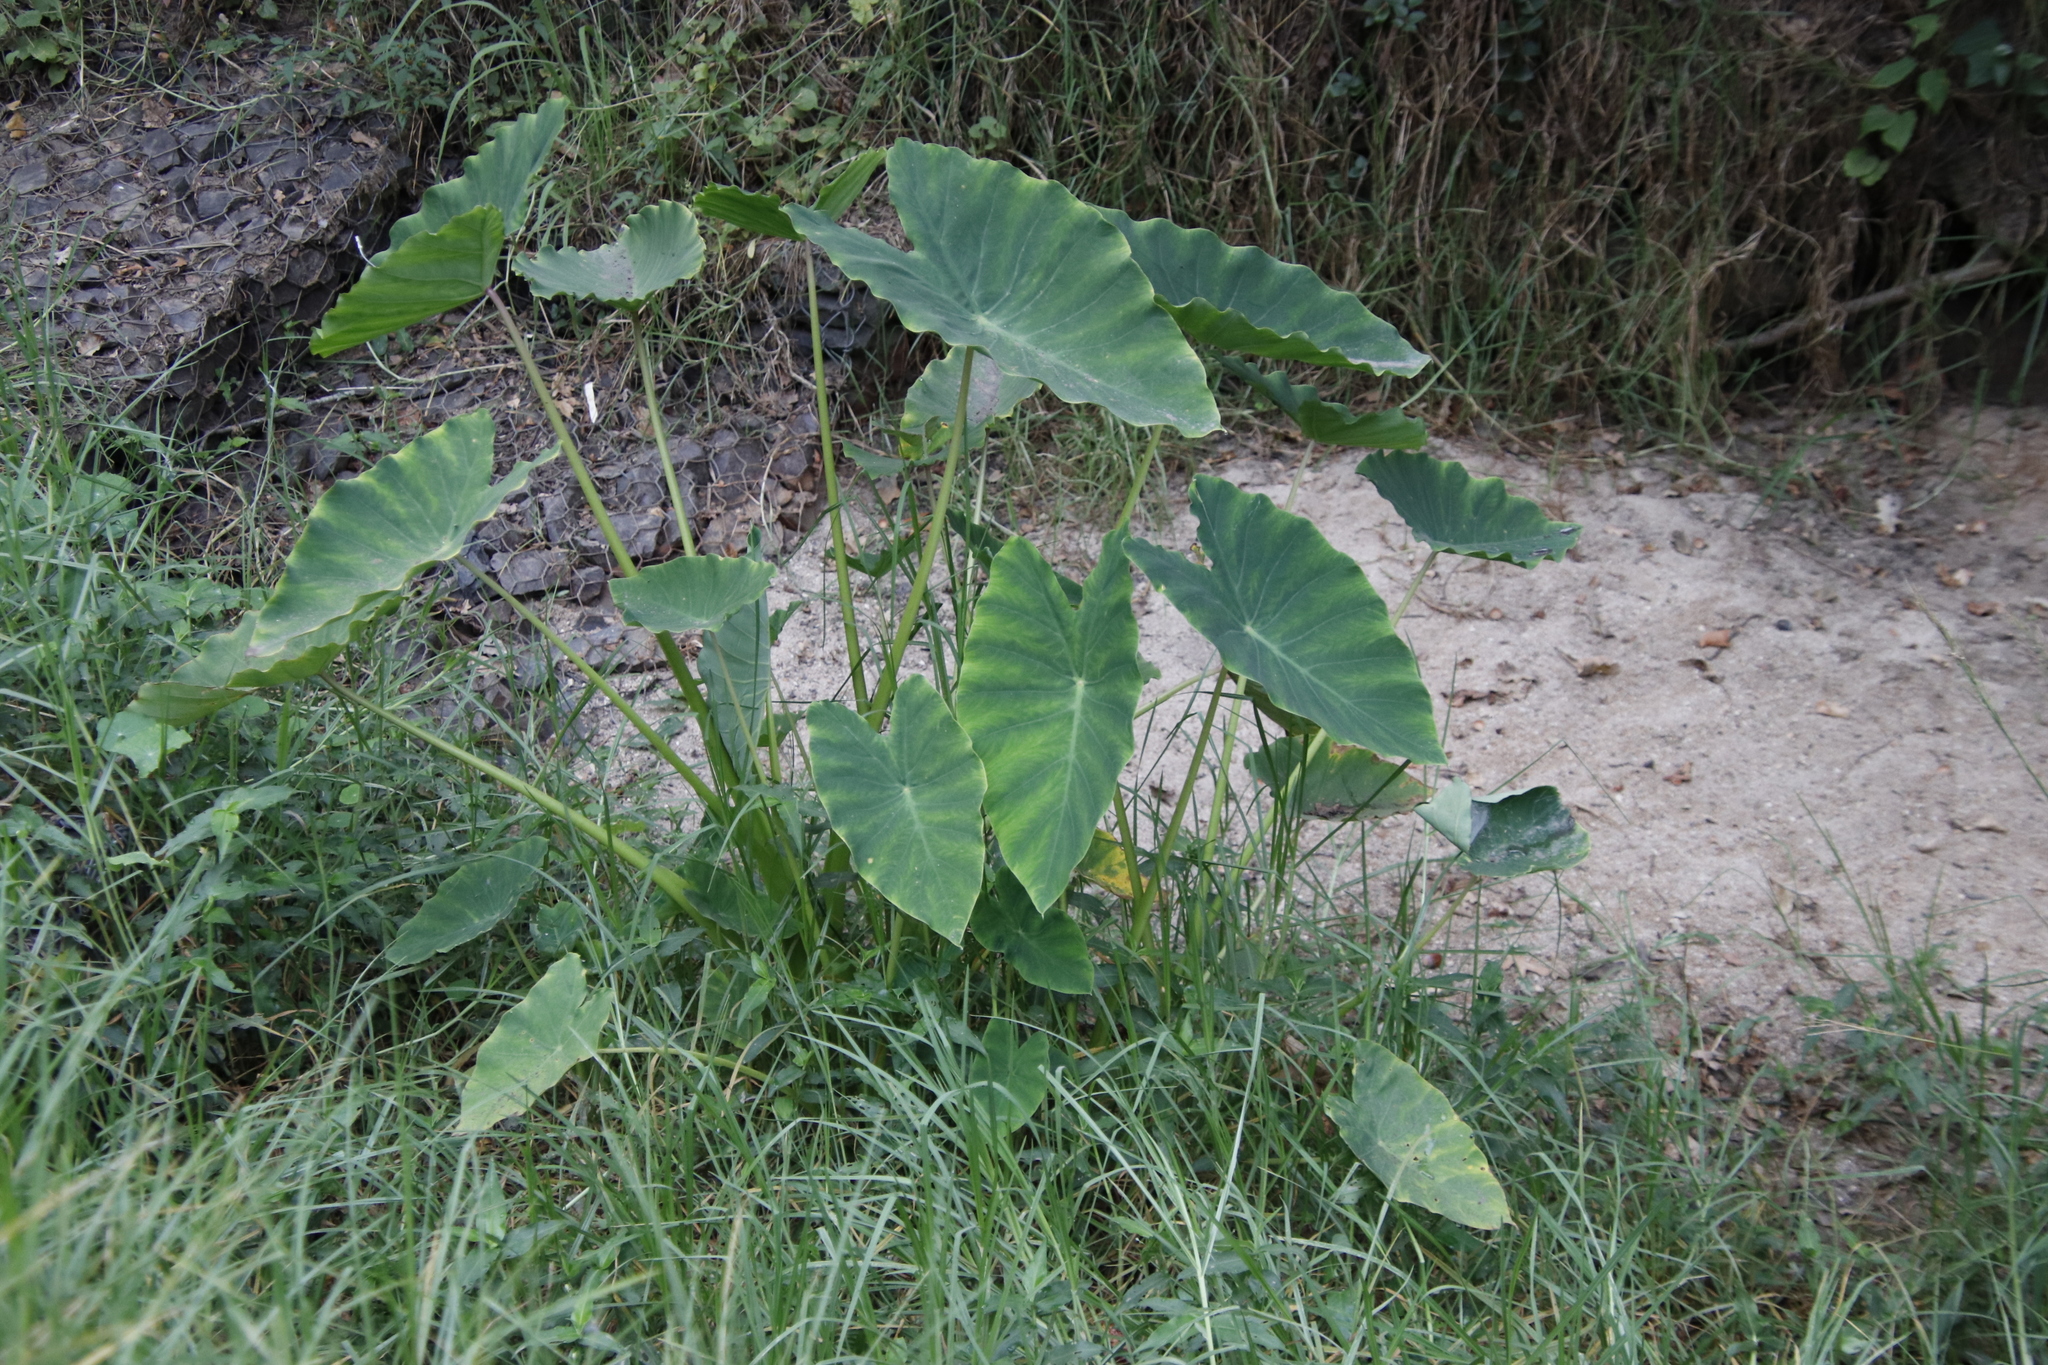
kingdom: Plantae
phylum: Tracheophyta
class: Liliopsida
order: Alismatales
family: Araceae
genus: Colocasia
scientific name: Colocasia esculenta
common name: Taro
